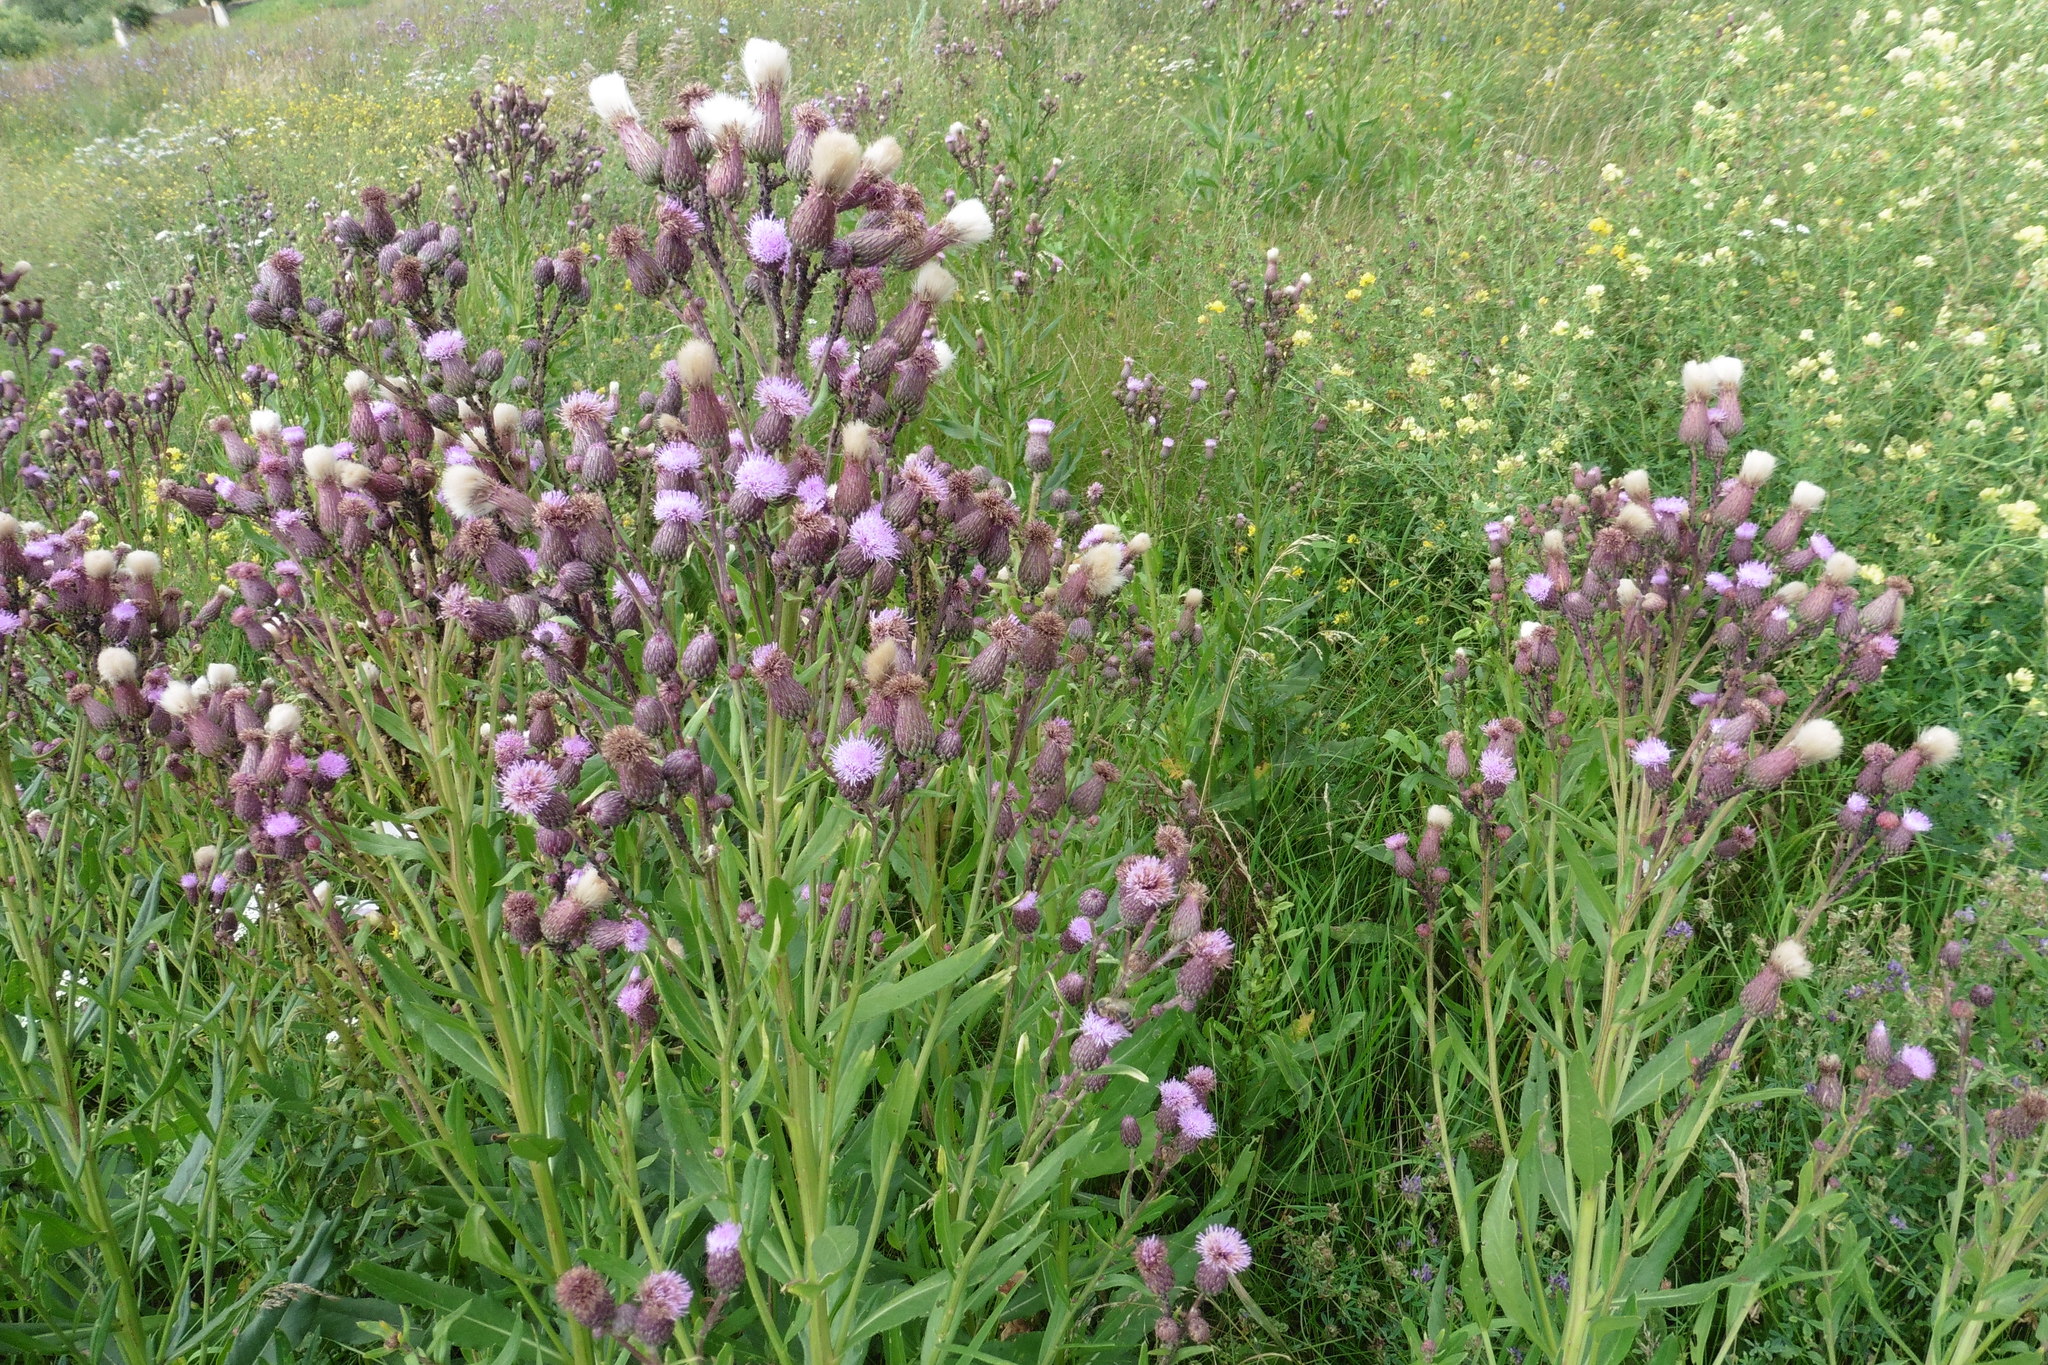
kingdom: Plantae
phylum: Tracheophyta
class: Magnoliopsida
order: Asterales
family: Asteraceae
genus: Cirsium
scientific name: Cirsium arvense
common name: Creeping thistle
